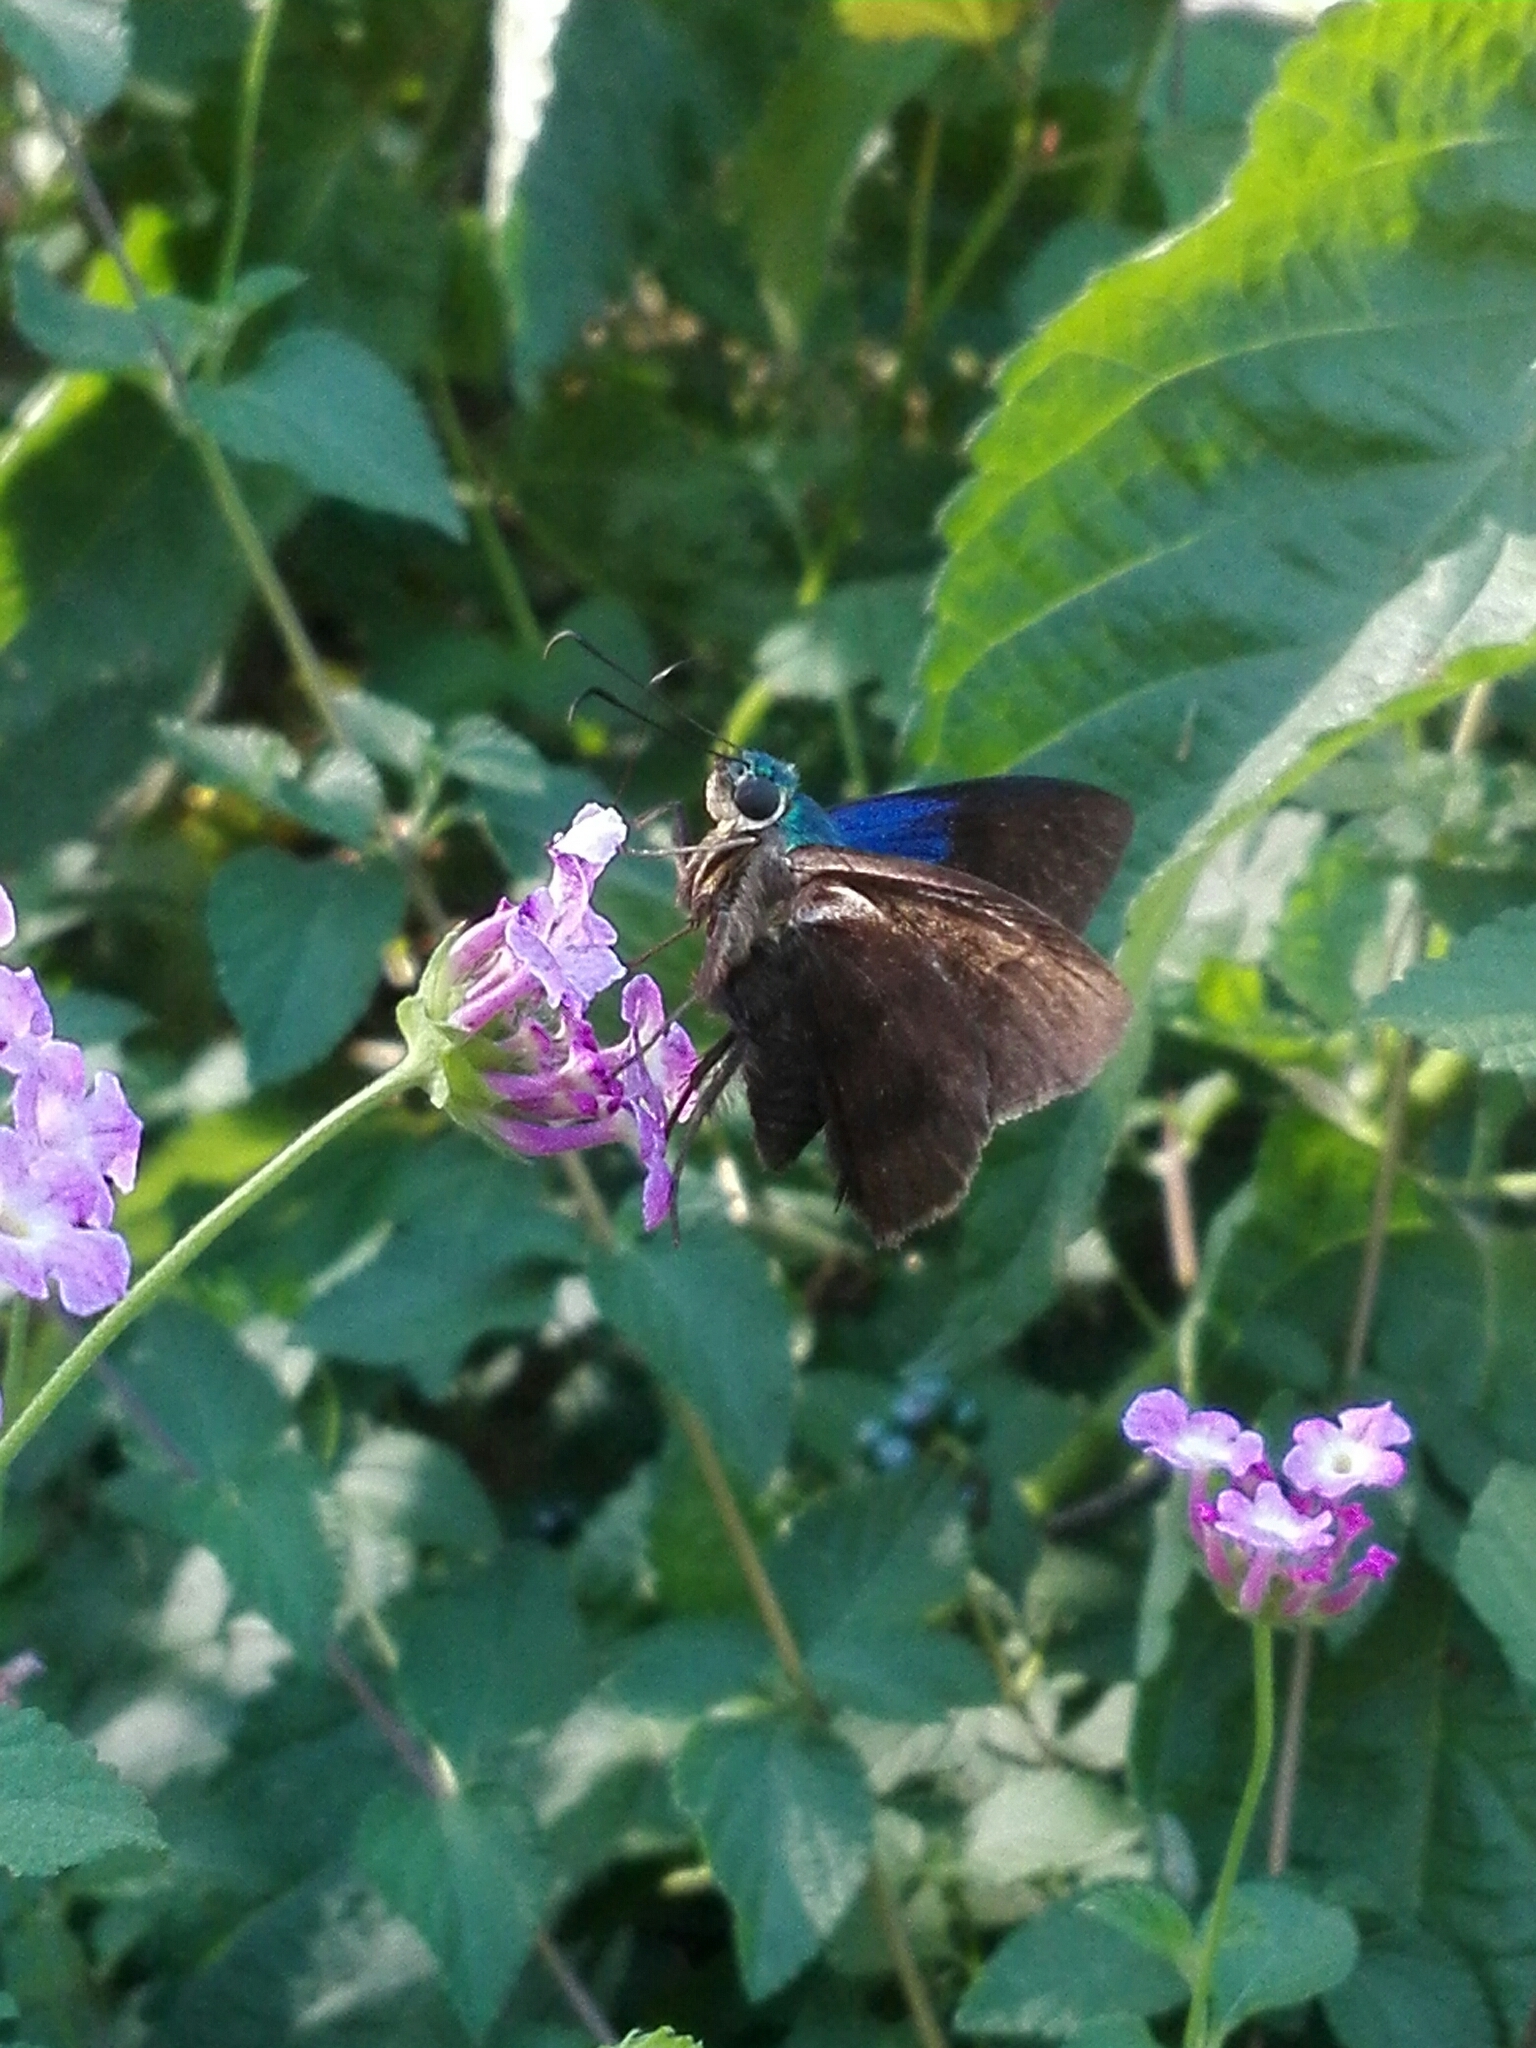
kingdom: Animalia
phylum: Arthropoda
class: Insecta
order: Lepidoptera
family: Hesperiidae
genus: Astraptes
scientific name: Astraptes alector
